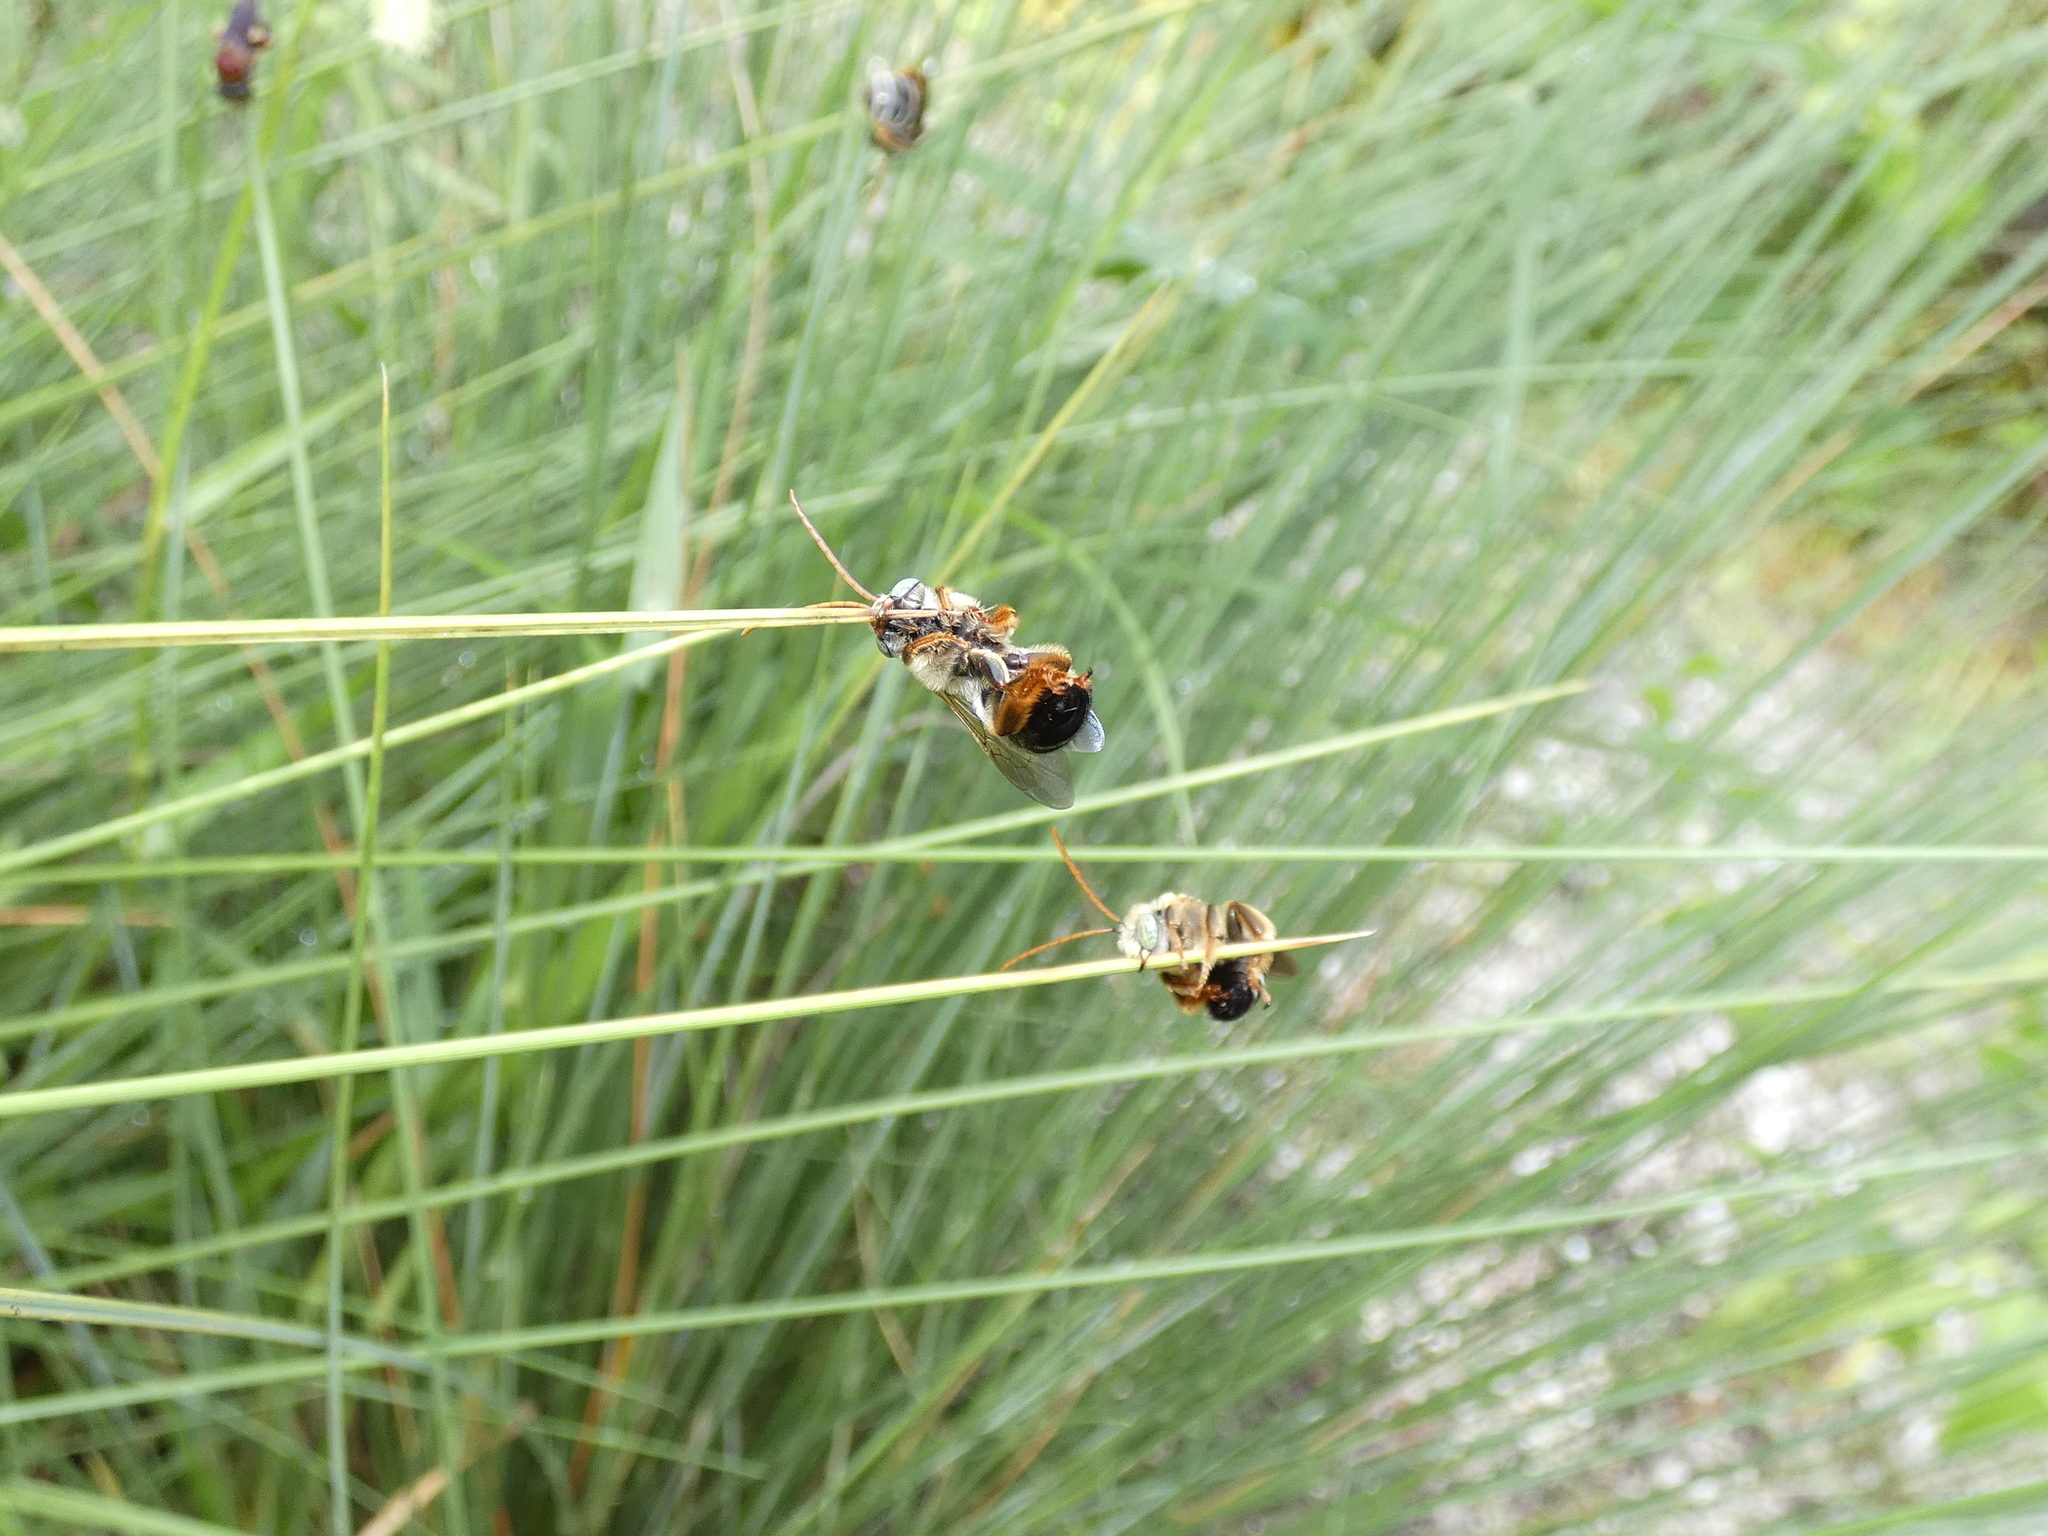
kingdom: Animalia
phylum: Arthropoda
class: Insecta
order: Hymenoptera
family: Apidae
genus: Melissodes
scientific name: Melissodes communis
